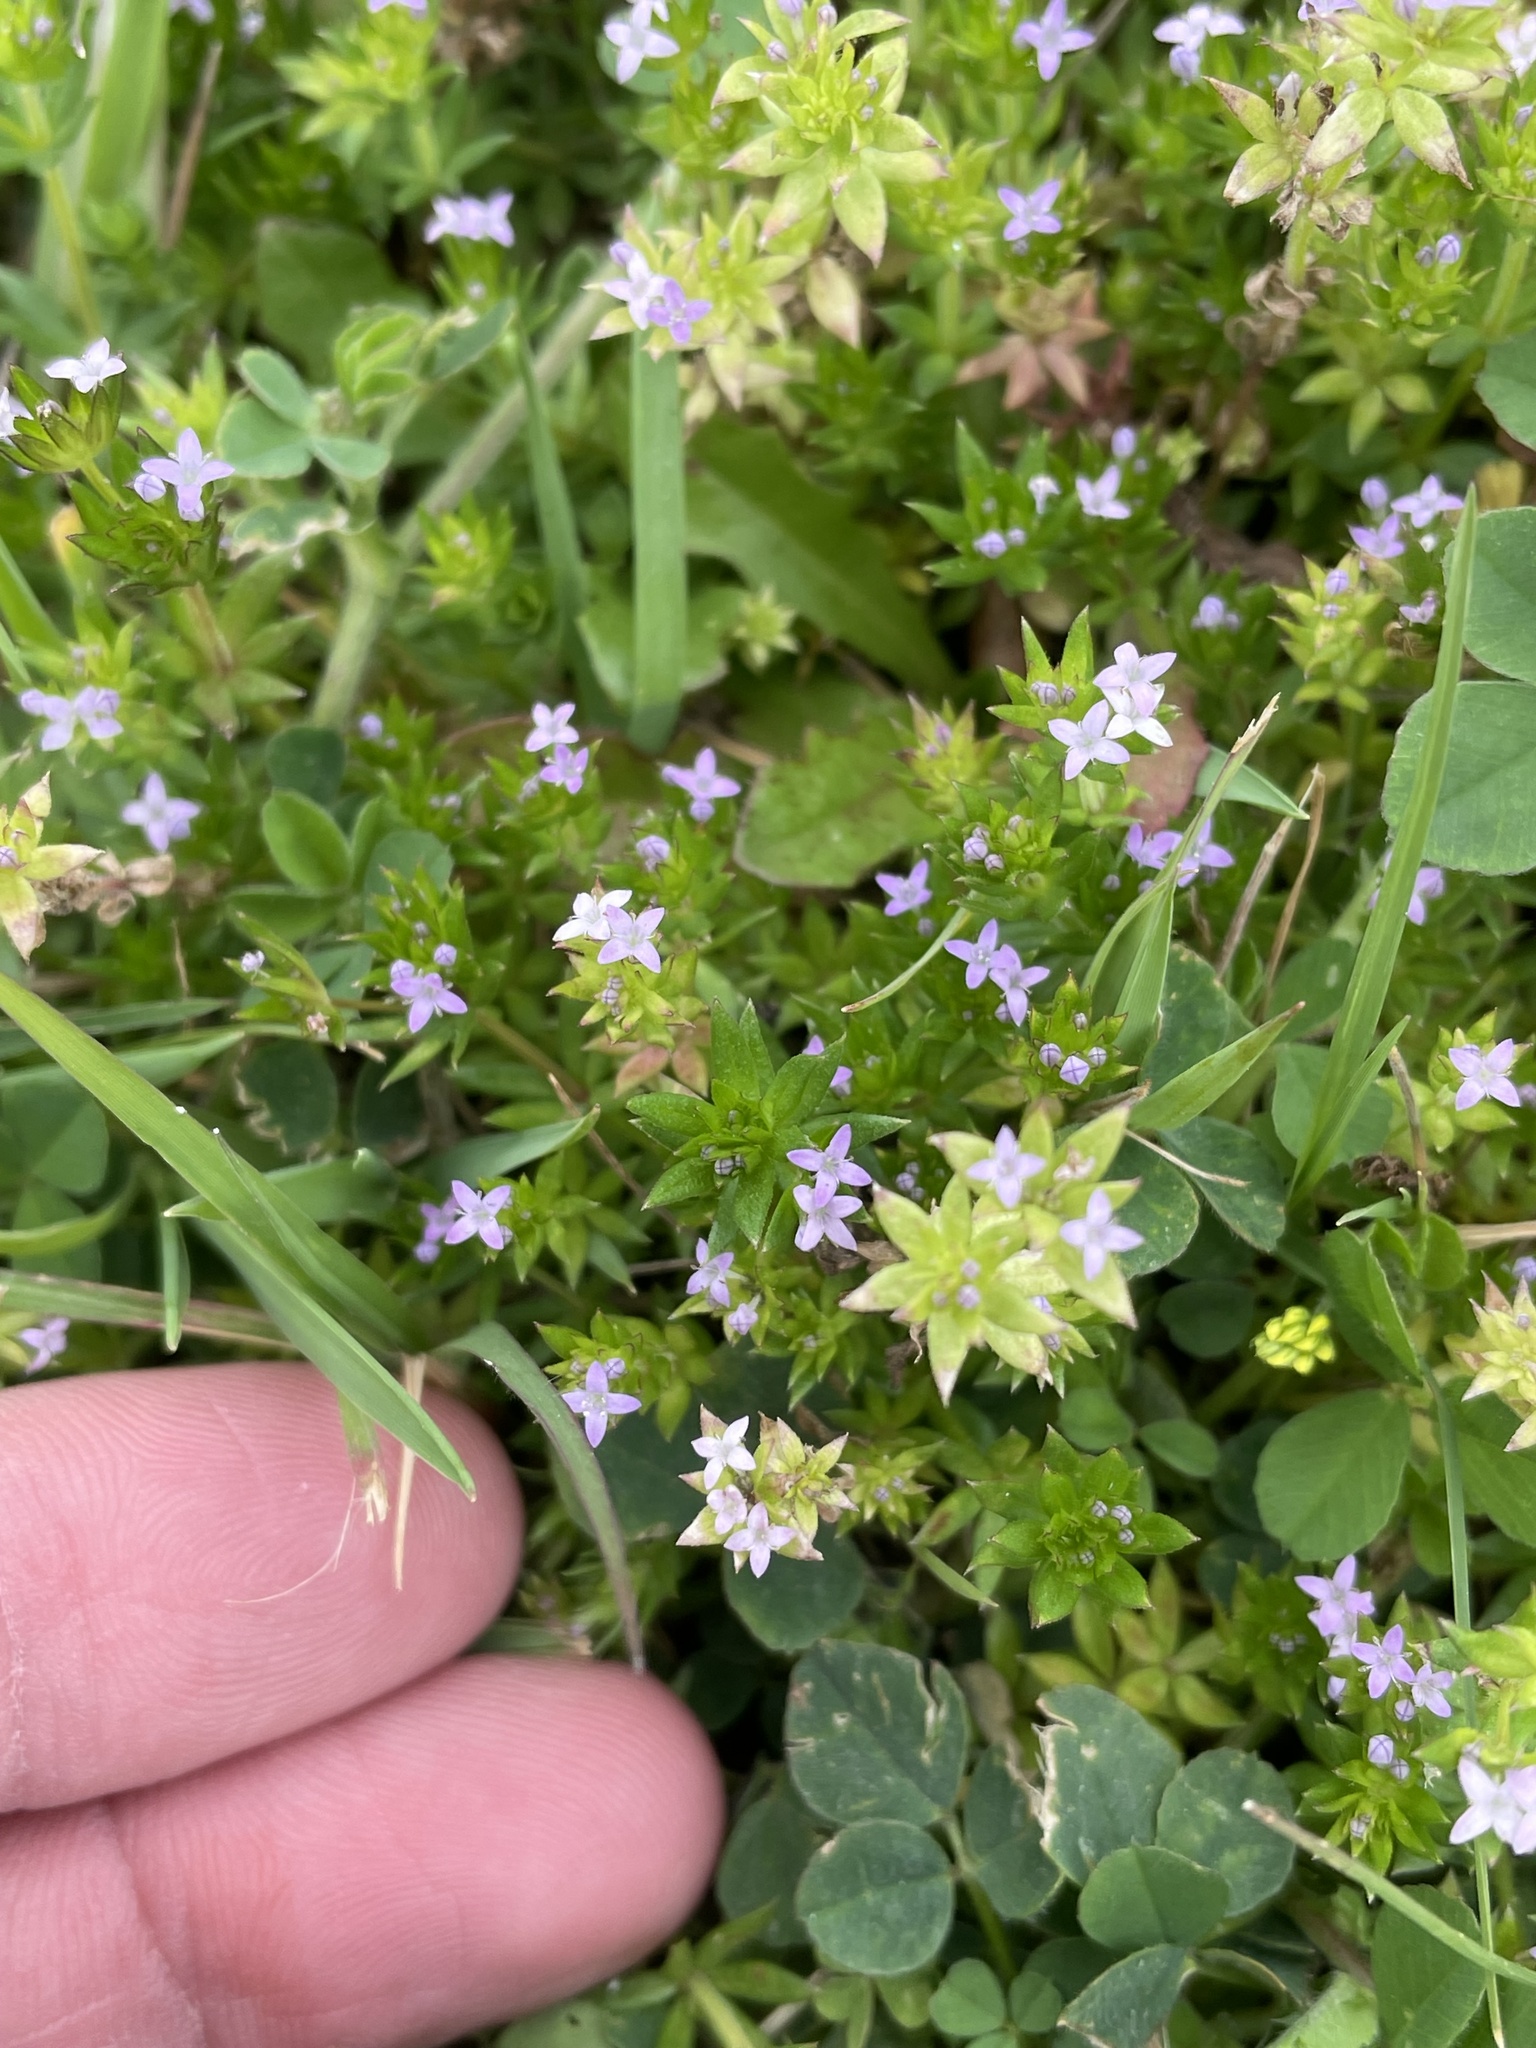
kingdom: Plantae
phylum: Tracheophyta
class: Magnoliopsida
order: Gentianales
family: Rubiaceae
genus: Sherardia
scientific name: Sherardia arvensis
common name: Field madder
